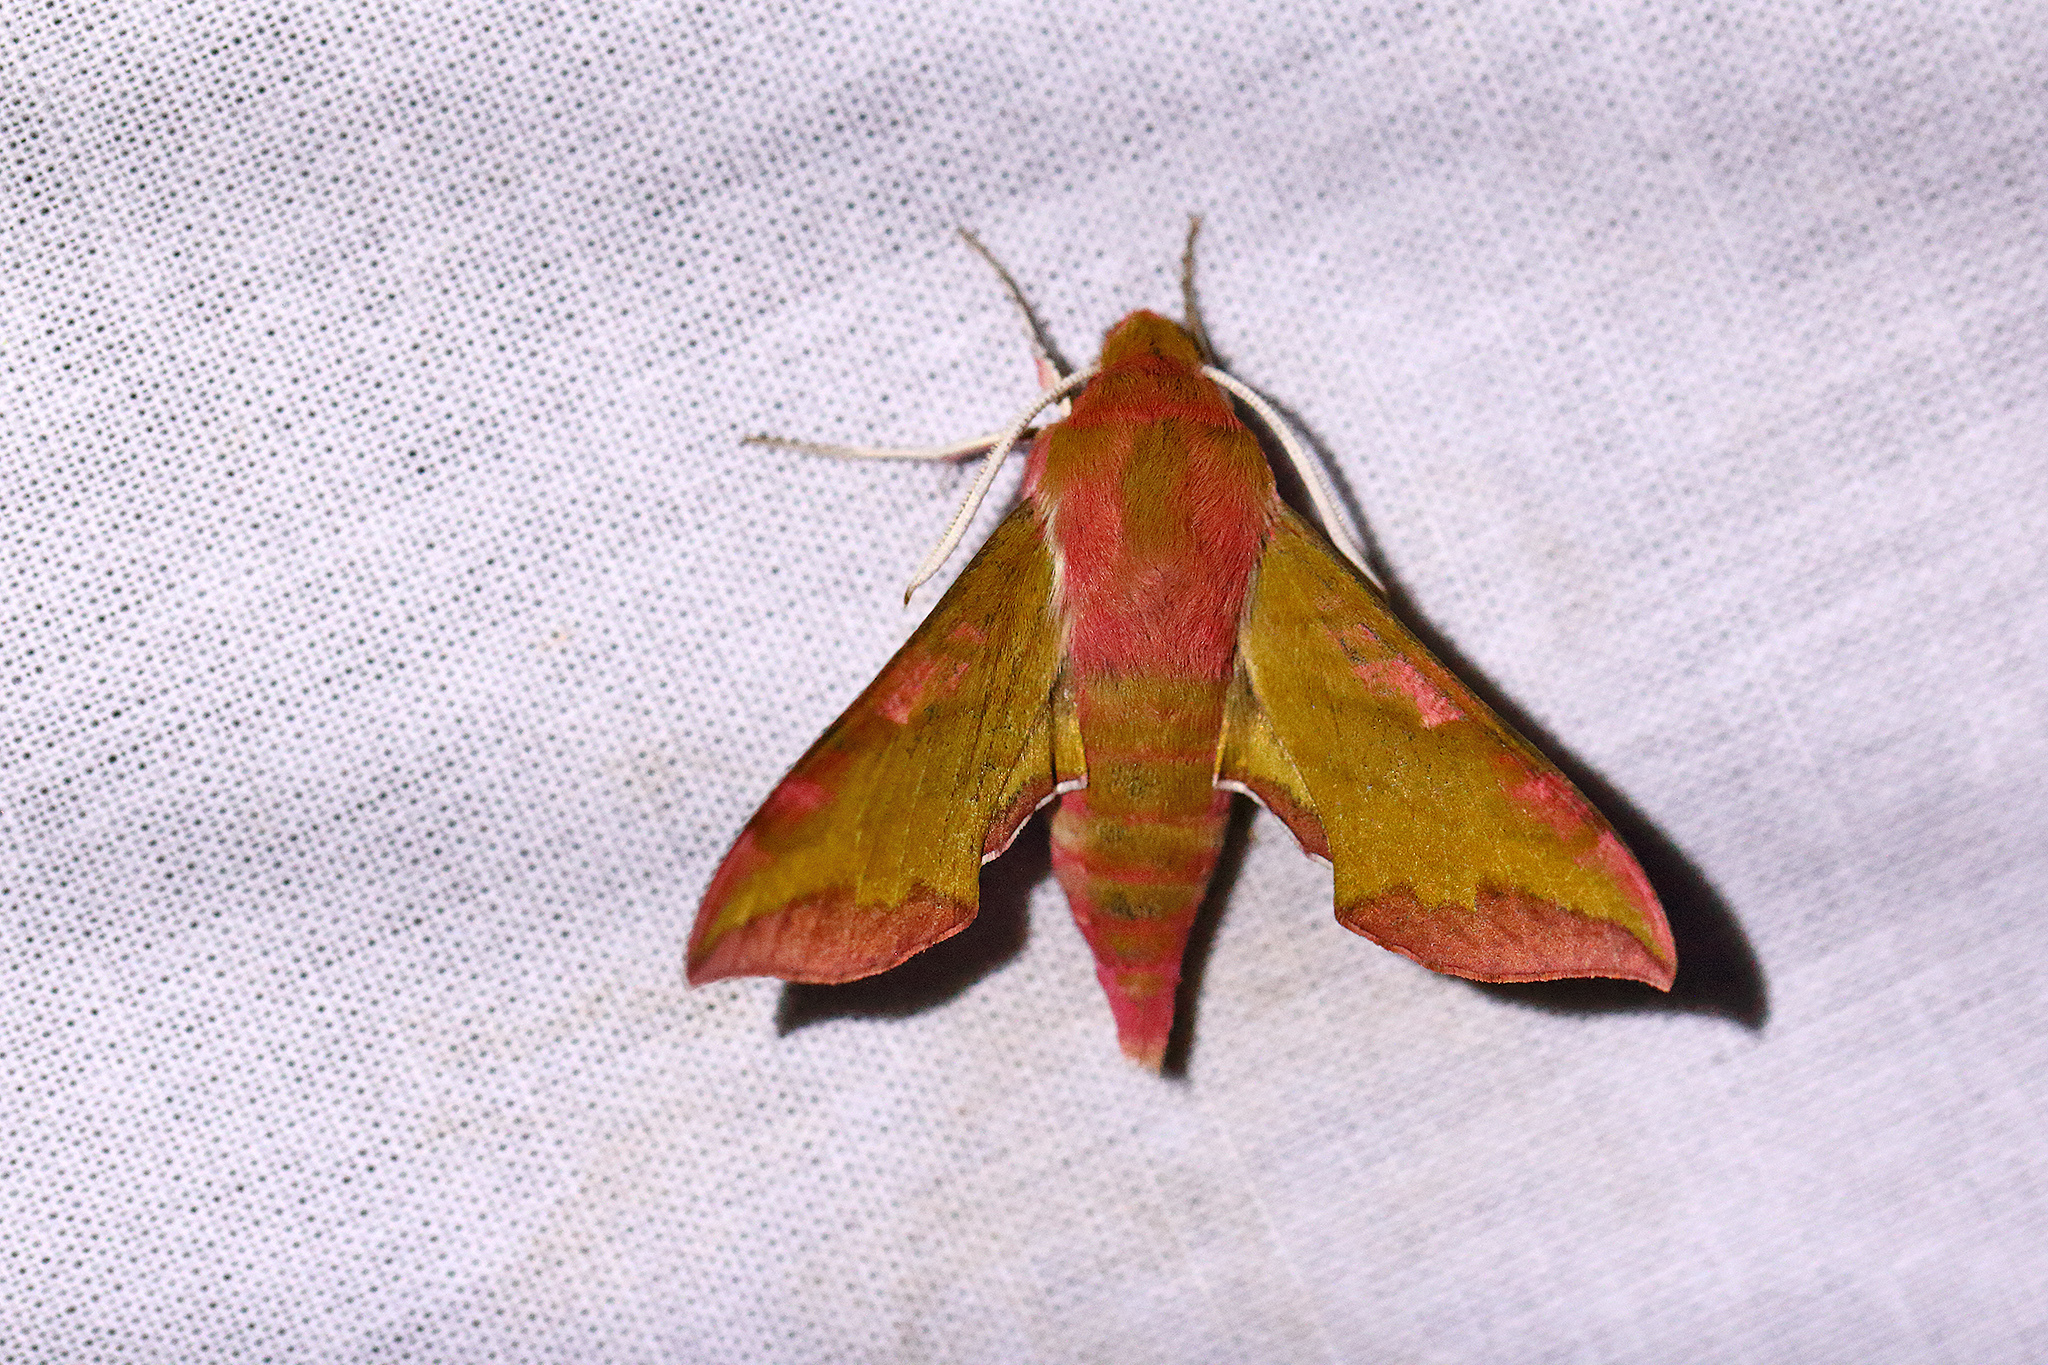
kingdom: Animalia
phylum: Arthropoda
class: Insecta
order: Lepidoptera
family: Sphingidae
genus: Deilephila
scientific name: Deilephila porcellus
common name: Small elephant hawk-moth
